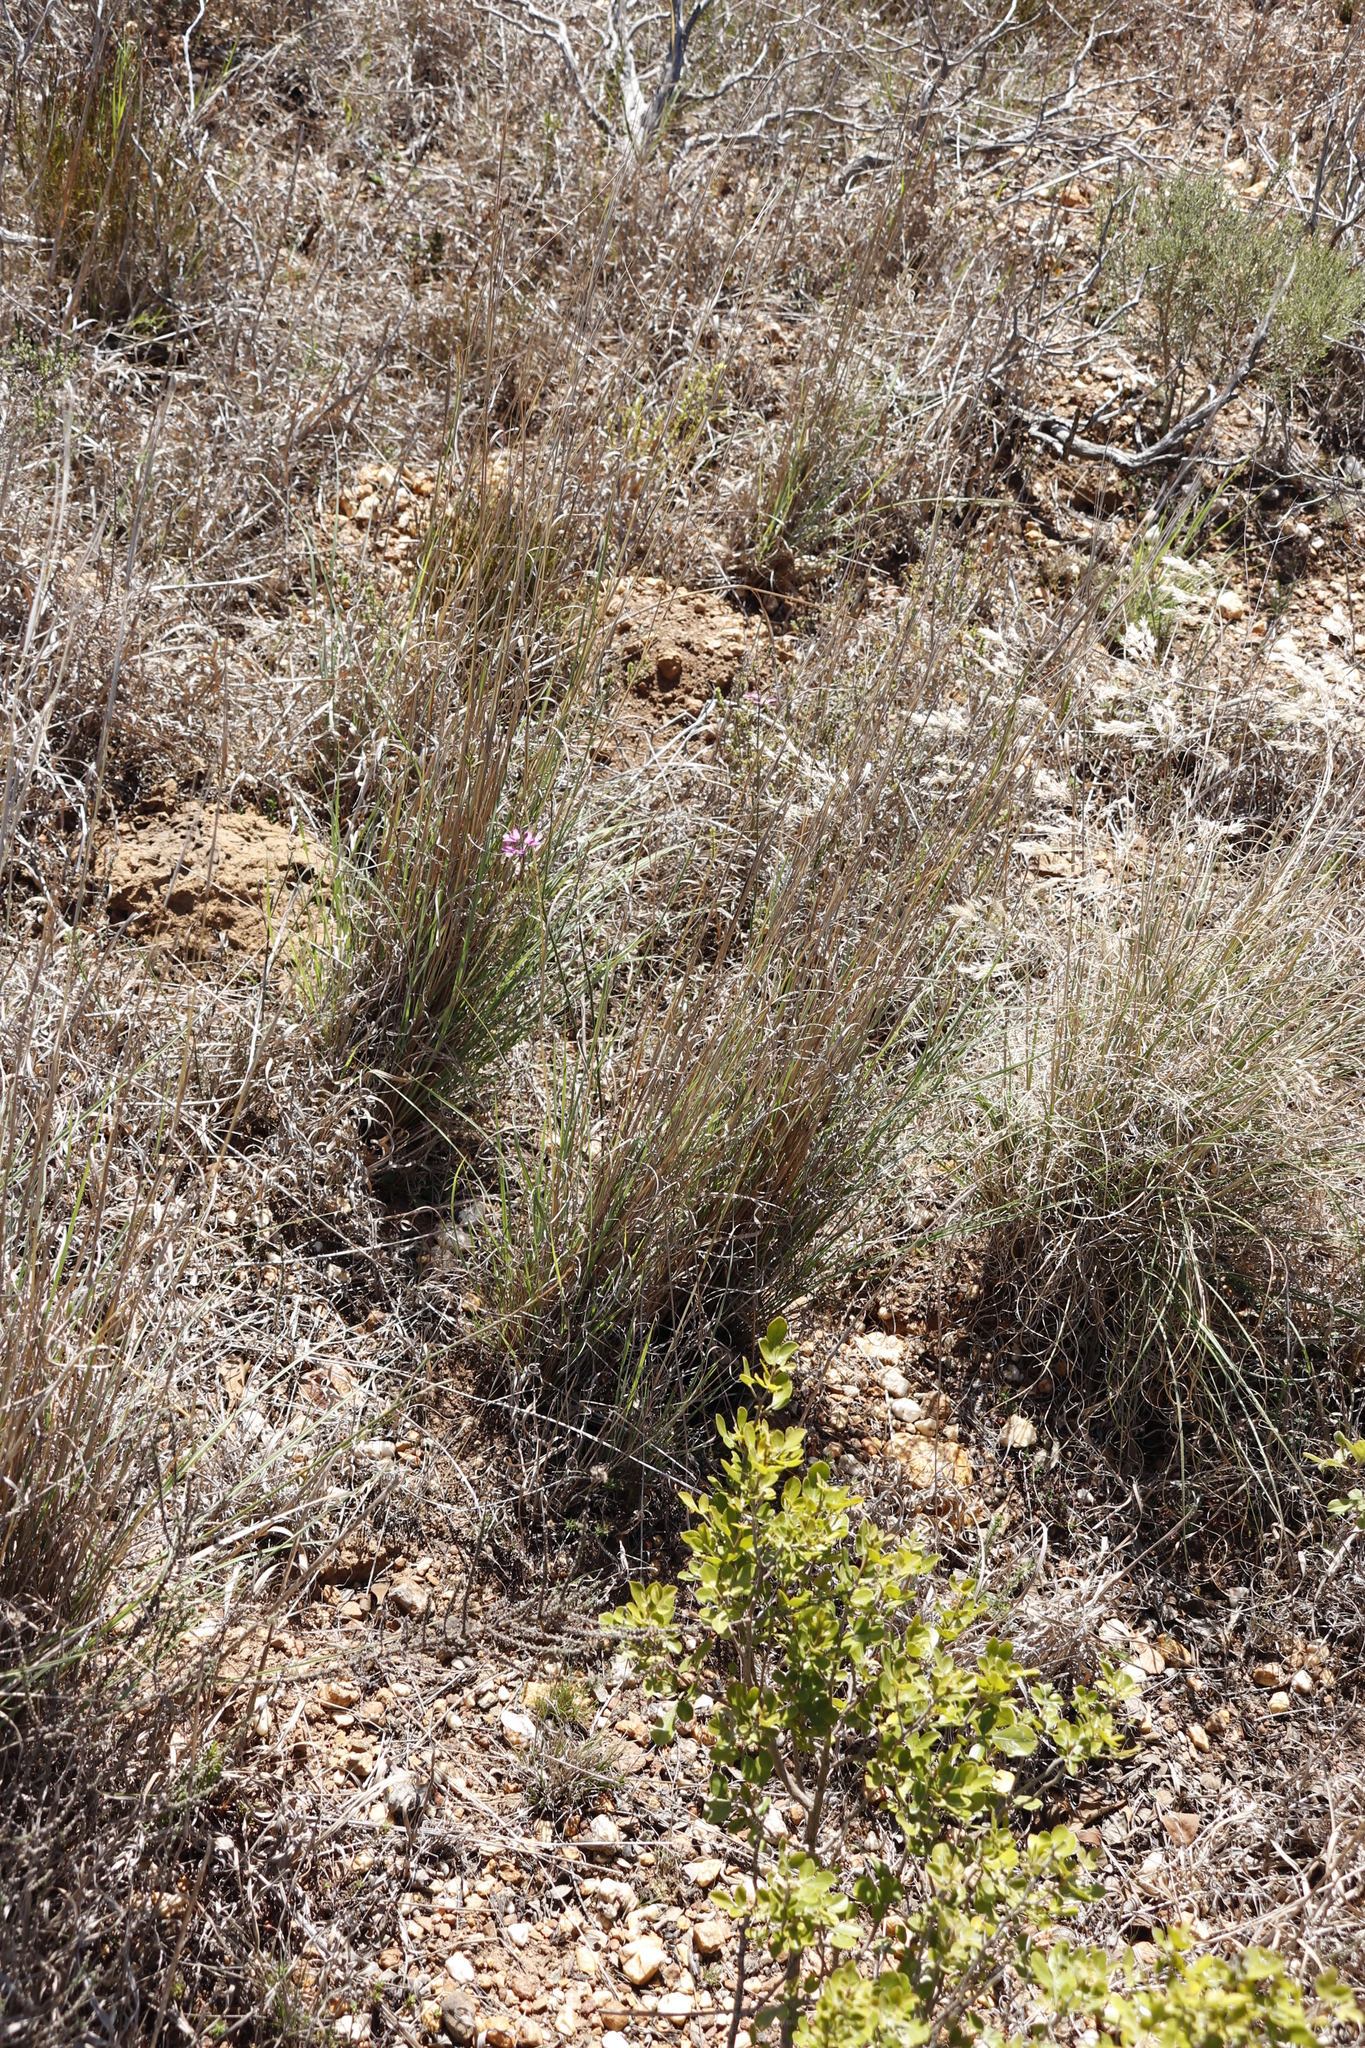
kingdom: Plantae
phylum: Tracheophyta
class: Magnoliopsida
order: Fabales
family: Polygalaceae
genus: Polygala
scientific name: Polygala garcini
